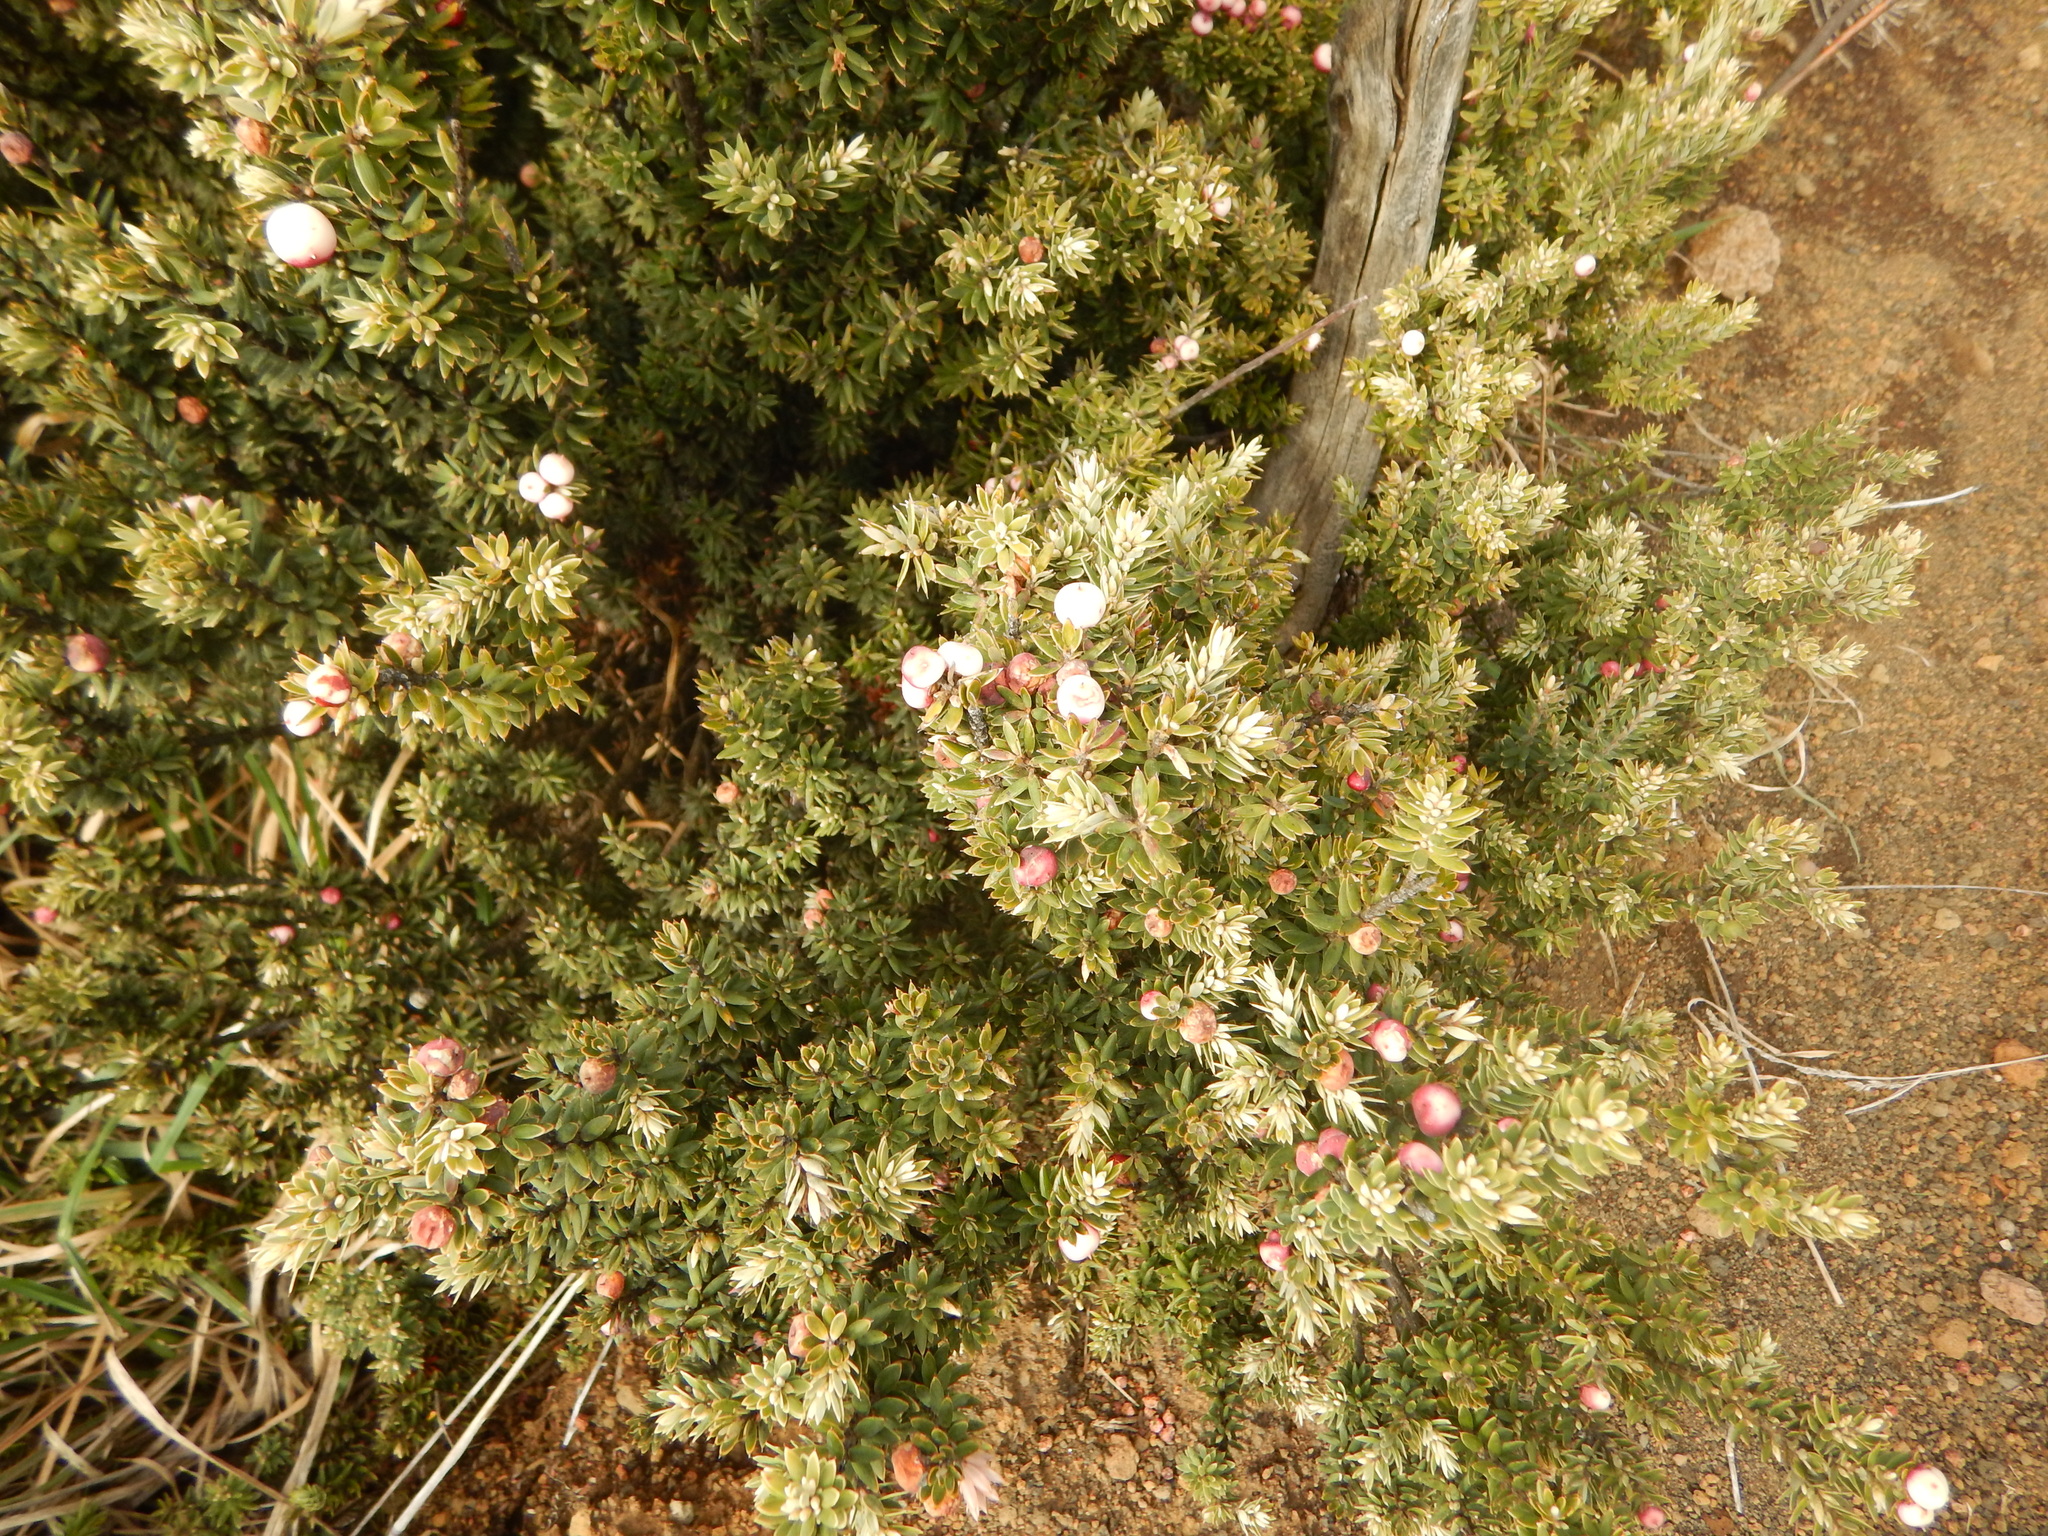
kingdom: Plantae
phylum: Tracheophyta
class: Magnoliopsida
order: Ericales
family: Ericaceae
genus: Leptecophylla
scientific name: Leptecophylla tameiameiae
